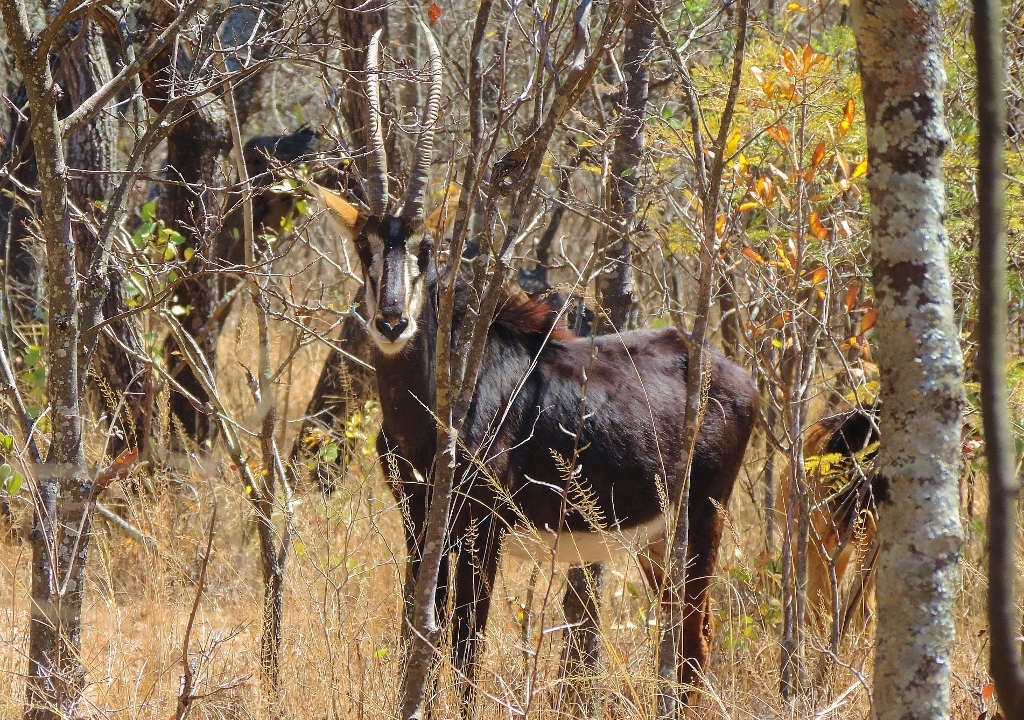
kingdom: Animalia
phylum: Chordata
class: Mammalia
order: Artiodactyla
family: Bovidae
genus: Hippotragus
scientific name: Hippotragus niger
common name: Sable antelope
